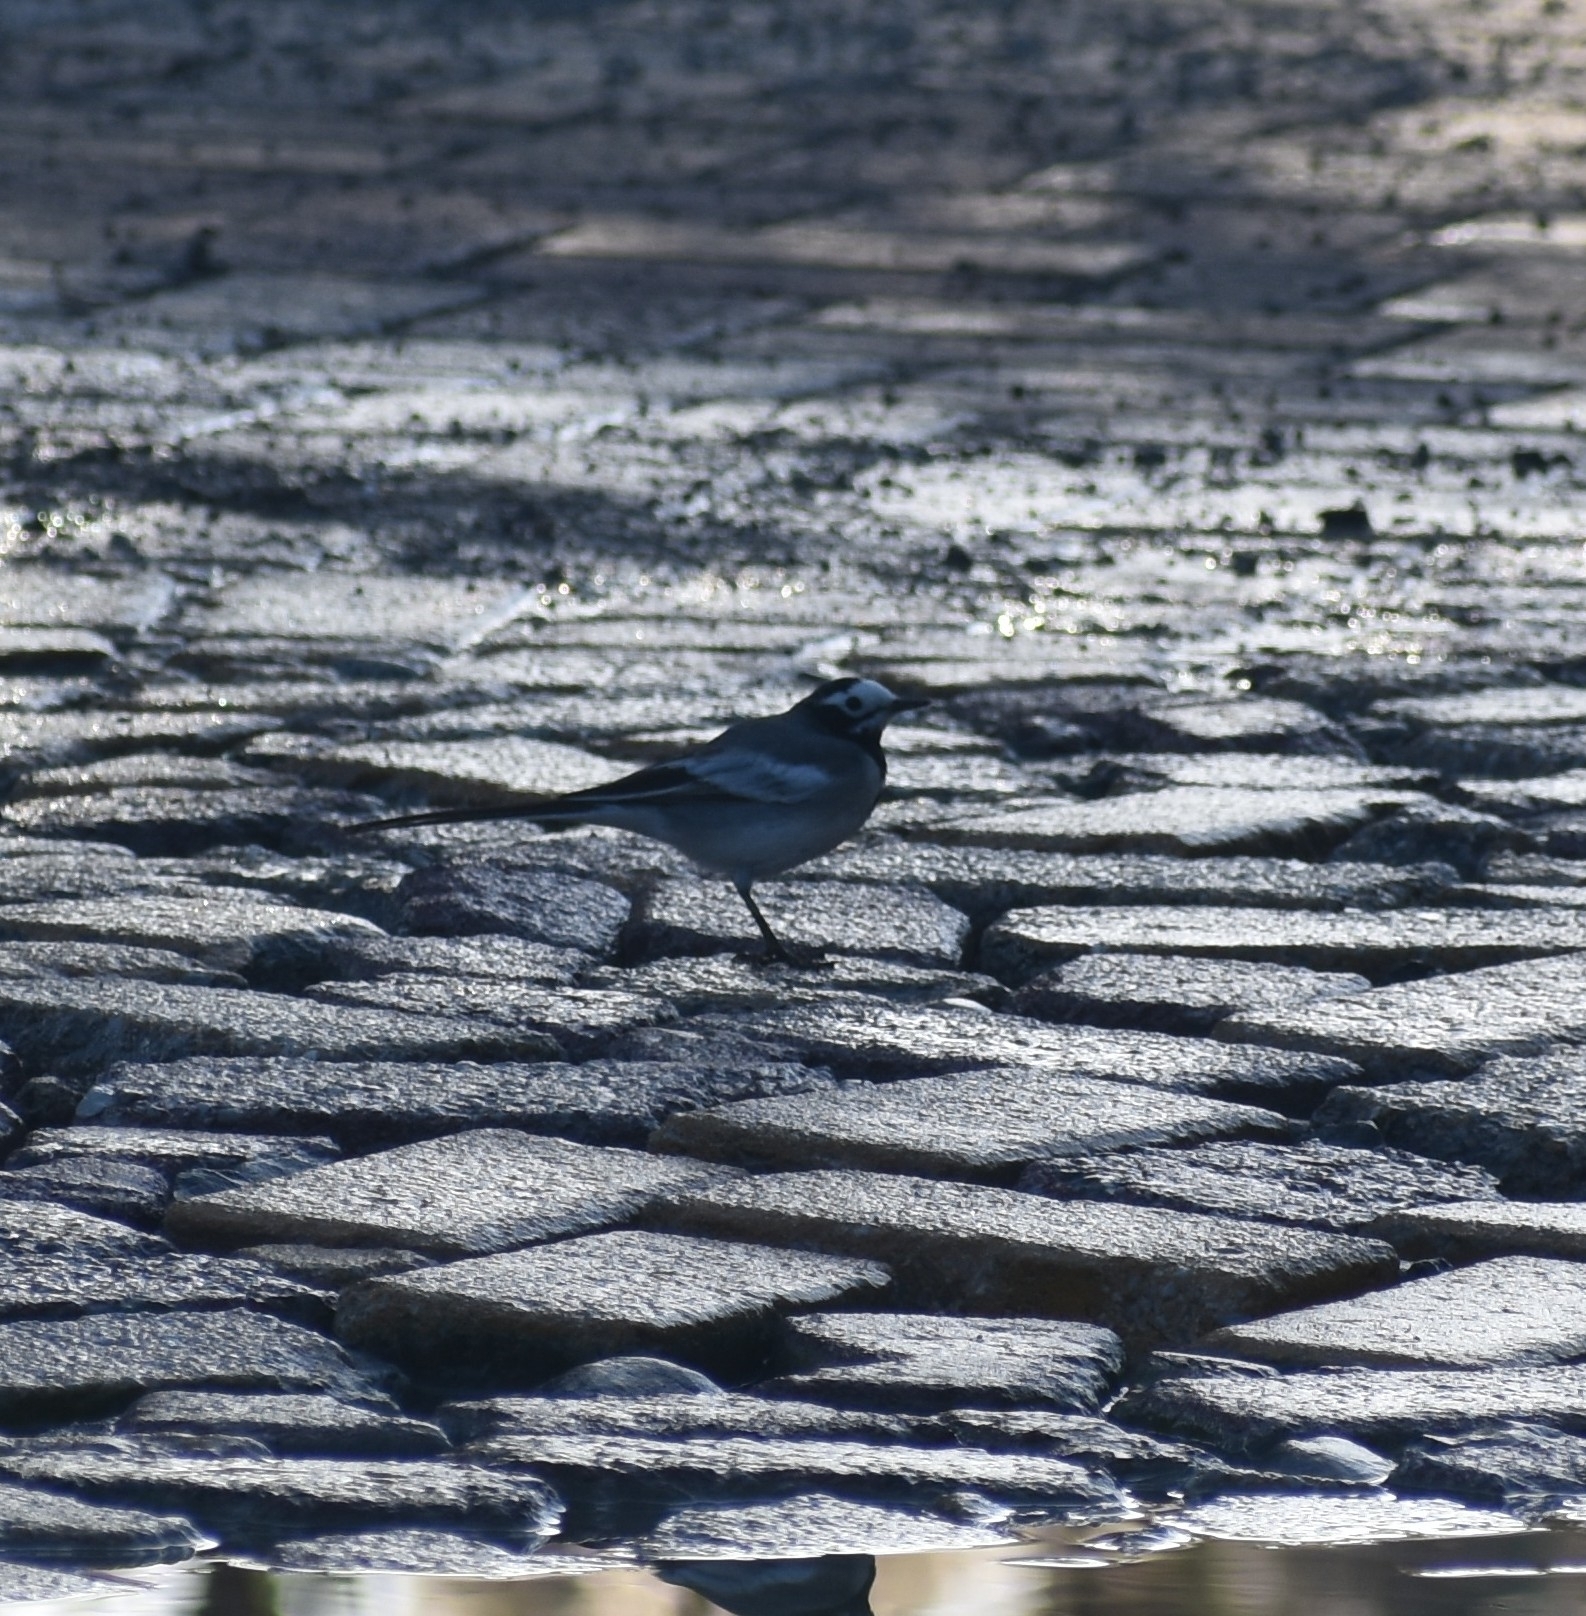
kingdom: Animalia
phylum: Chordata
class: Aves
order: Passeriformes
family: Motacillidae
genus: Motacilla
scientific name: Motacilla alba
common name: White wagtail
